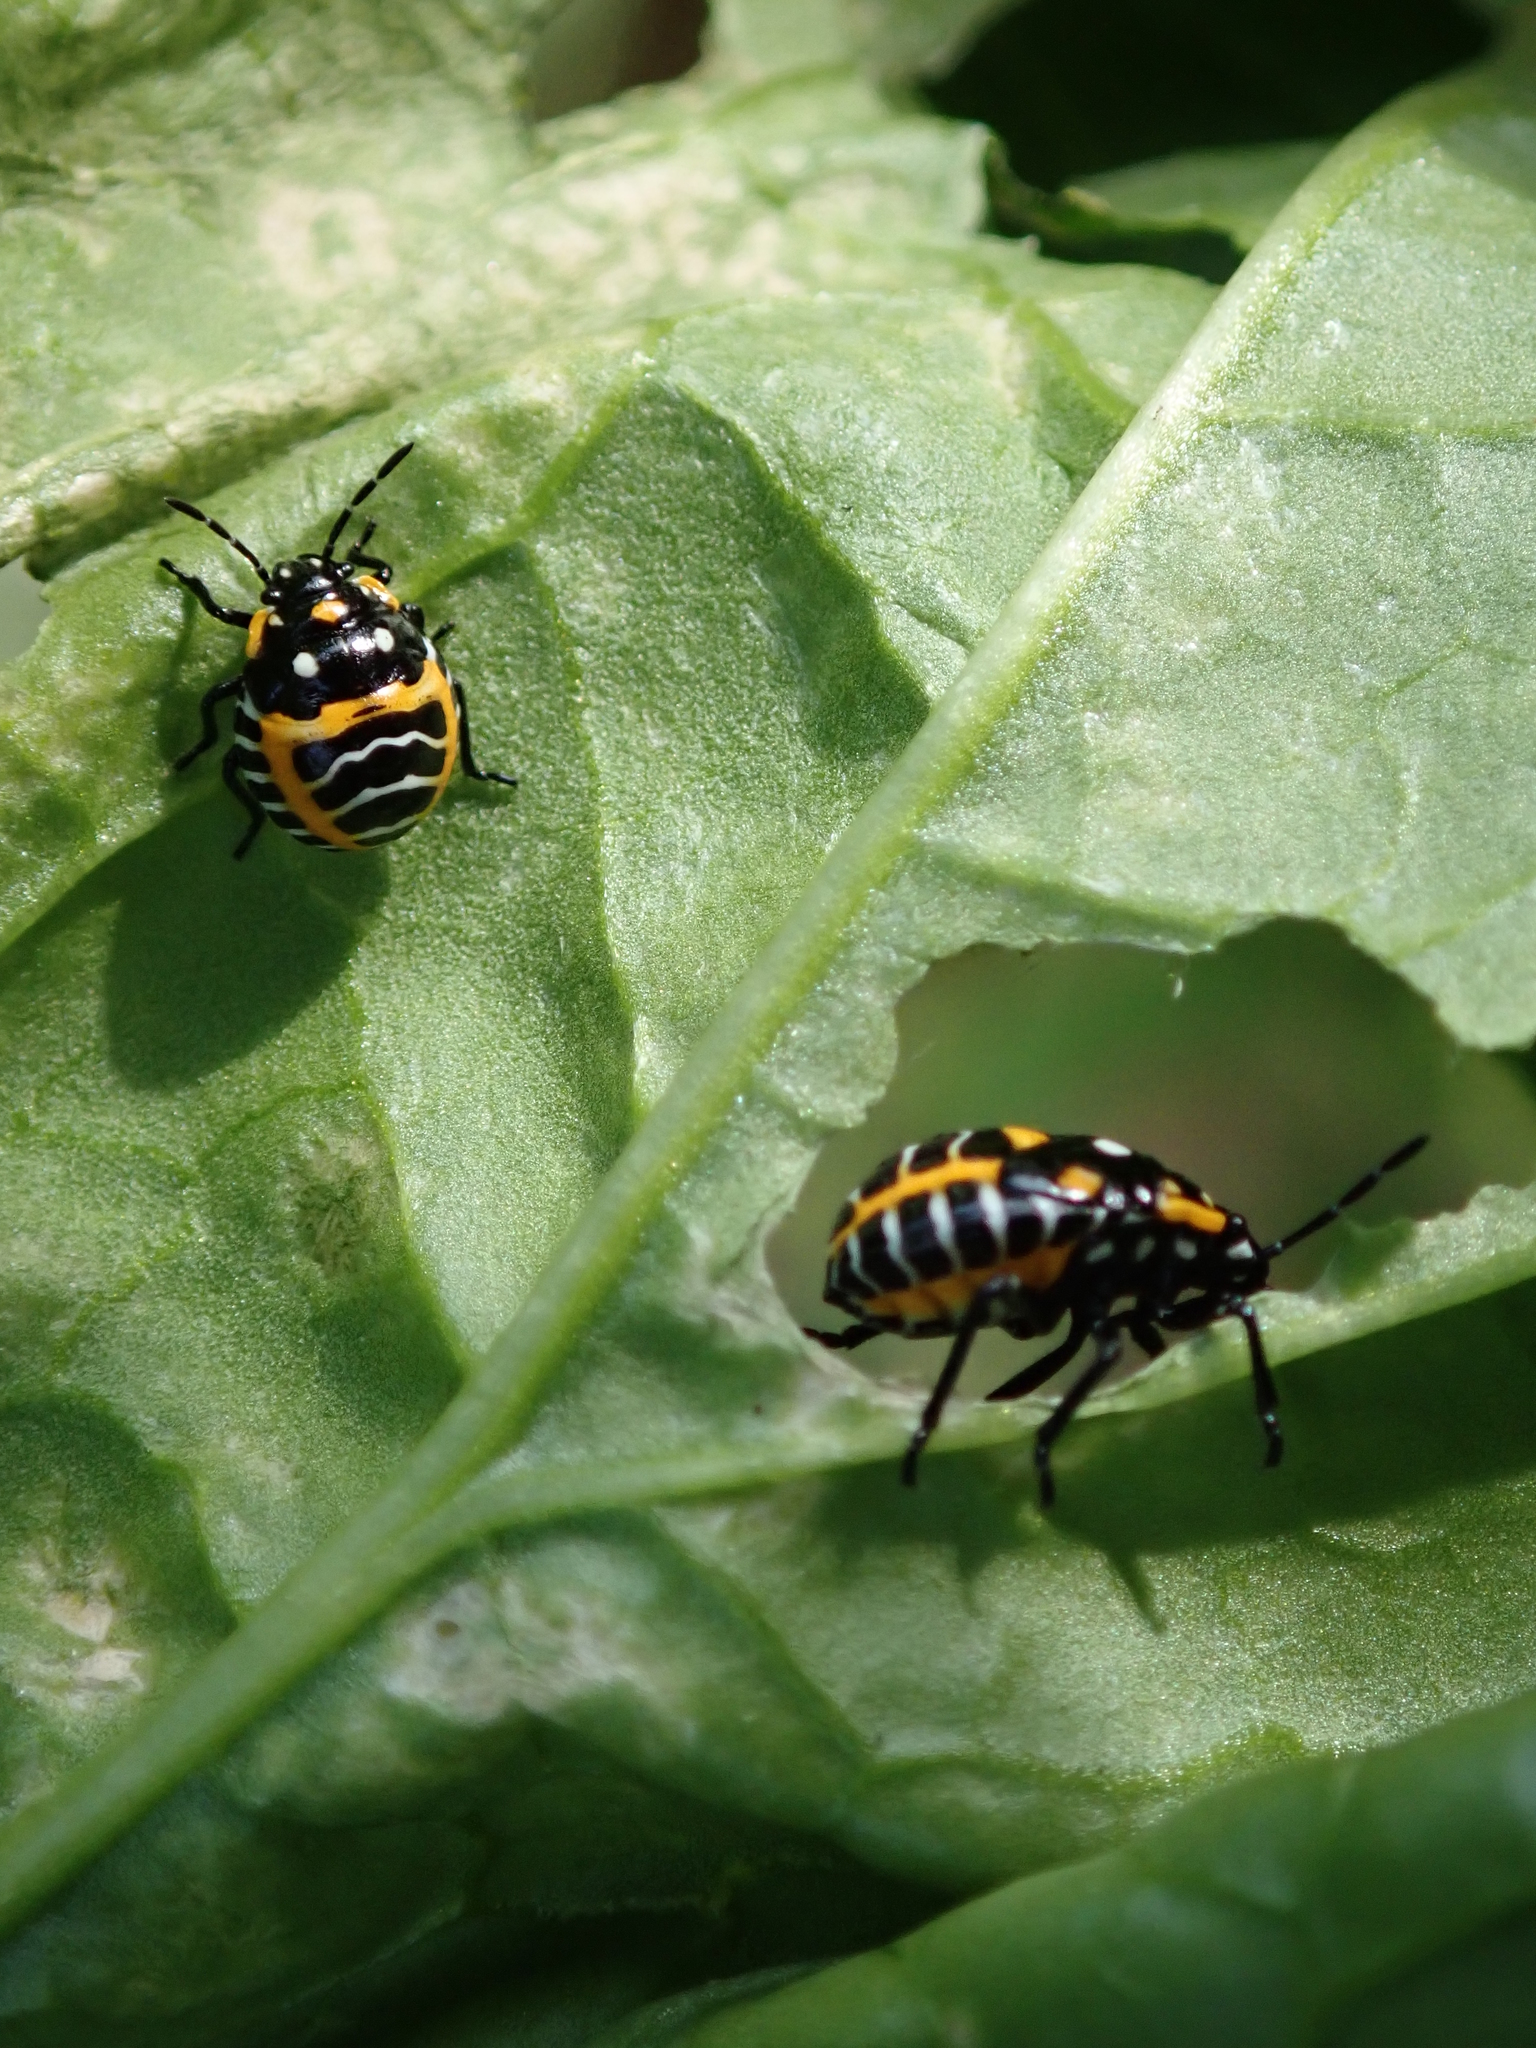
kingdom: Animalia
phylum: Arthropoda
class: Insecta
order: Hemiptera
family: Pentatomidae
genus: Murgantia
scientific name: Murgantia histrionica
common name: Harlequin bug
